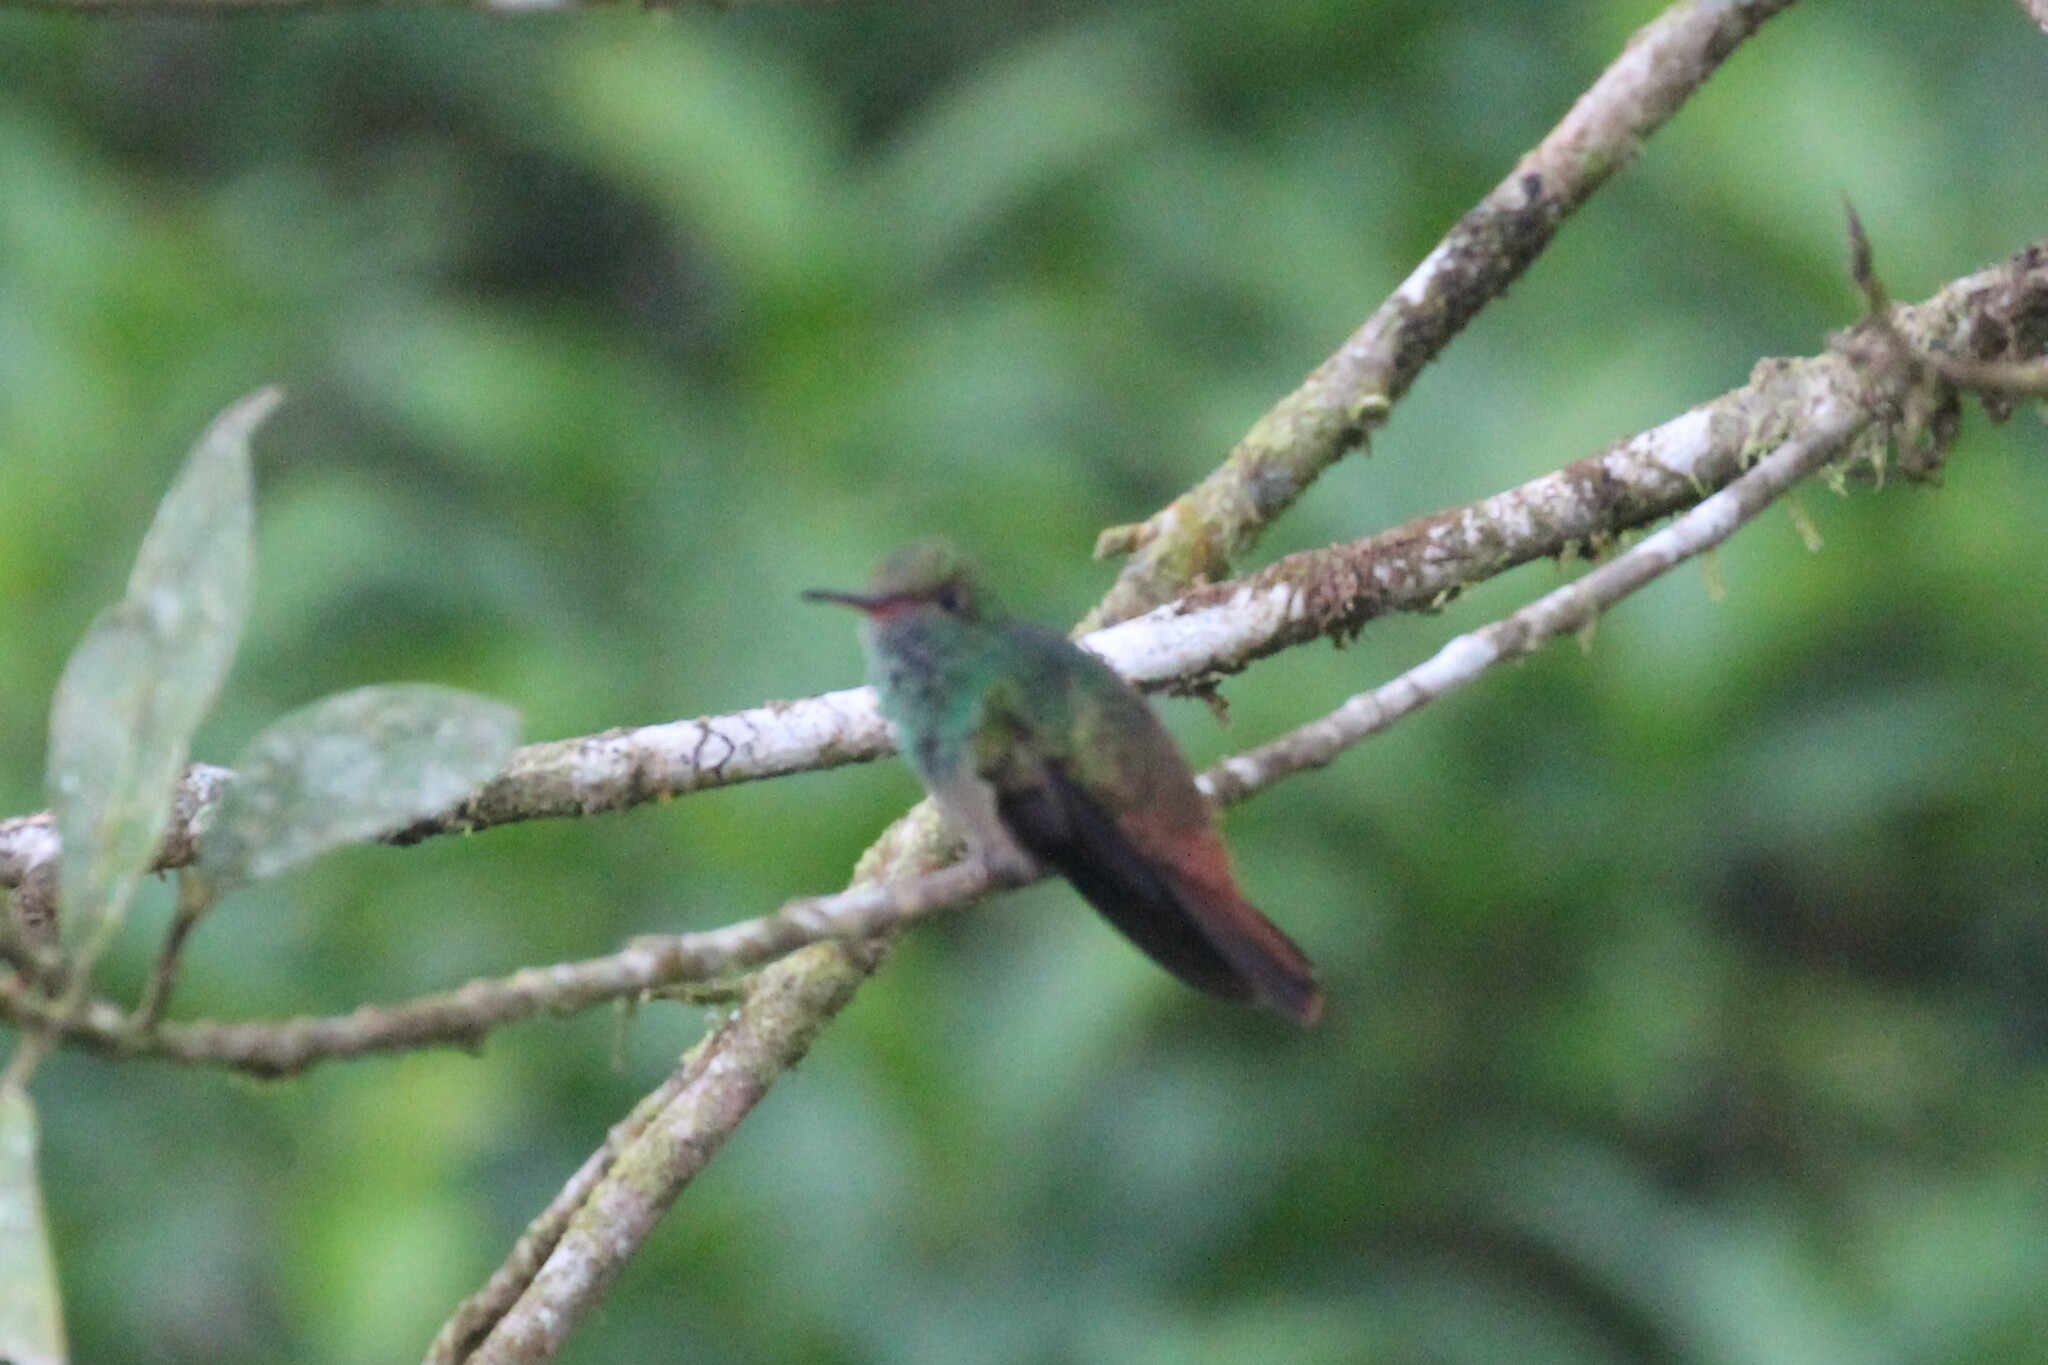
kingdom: Animalia
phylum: Chordata
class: Aves
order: Apodiformes
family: Trochilidae
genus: Amazilia
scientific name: Amazilia tzacatl
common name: Rufous-tailed hummingbird
